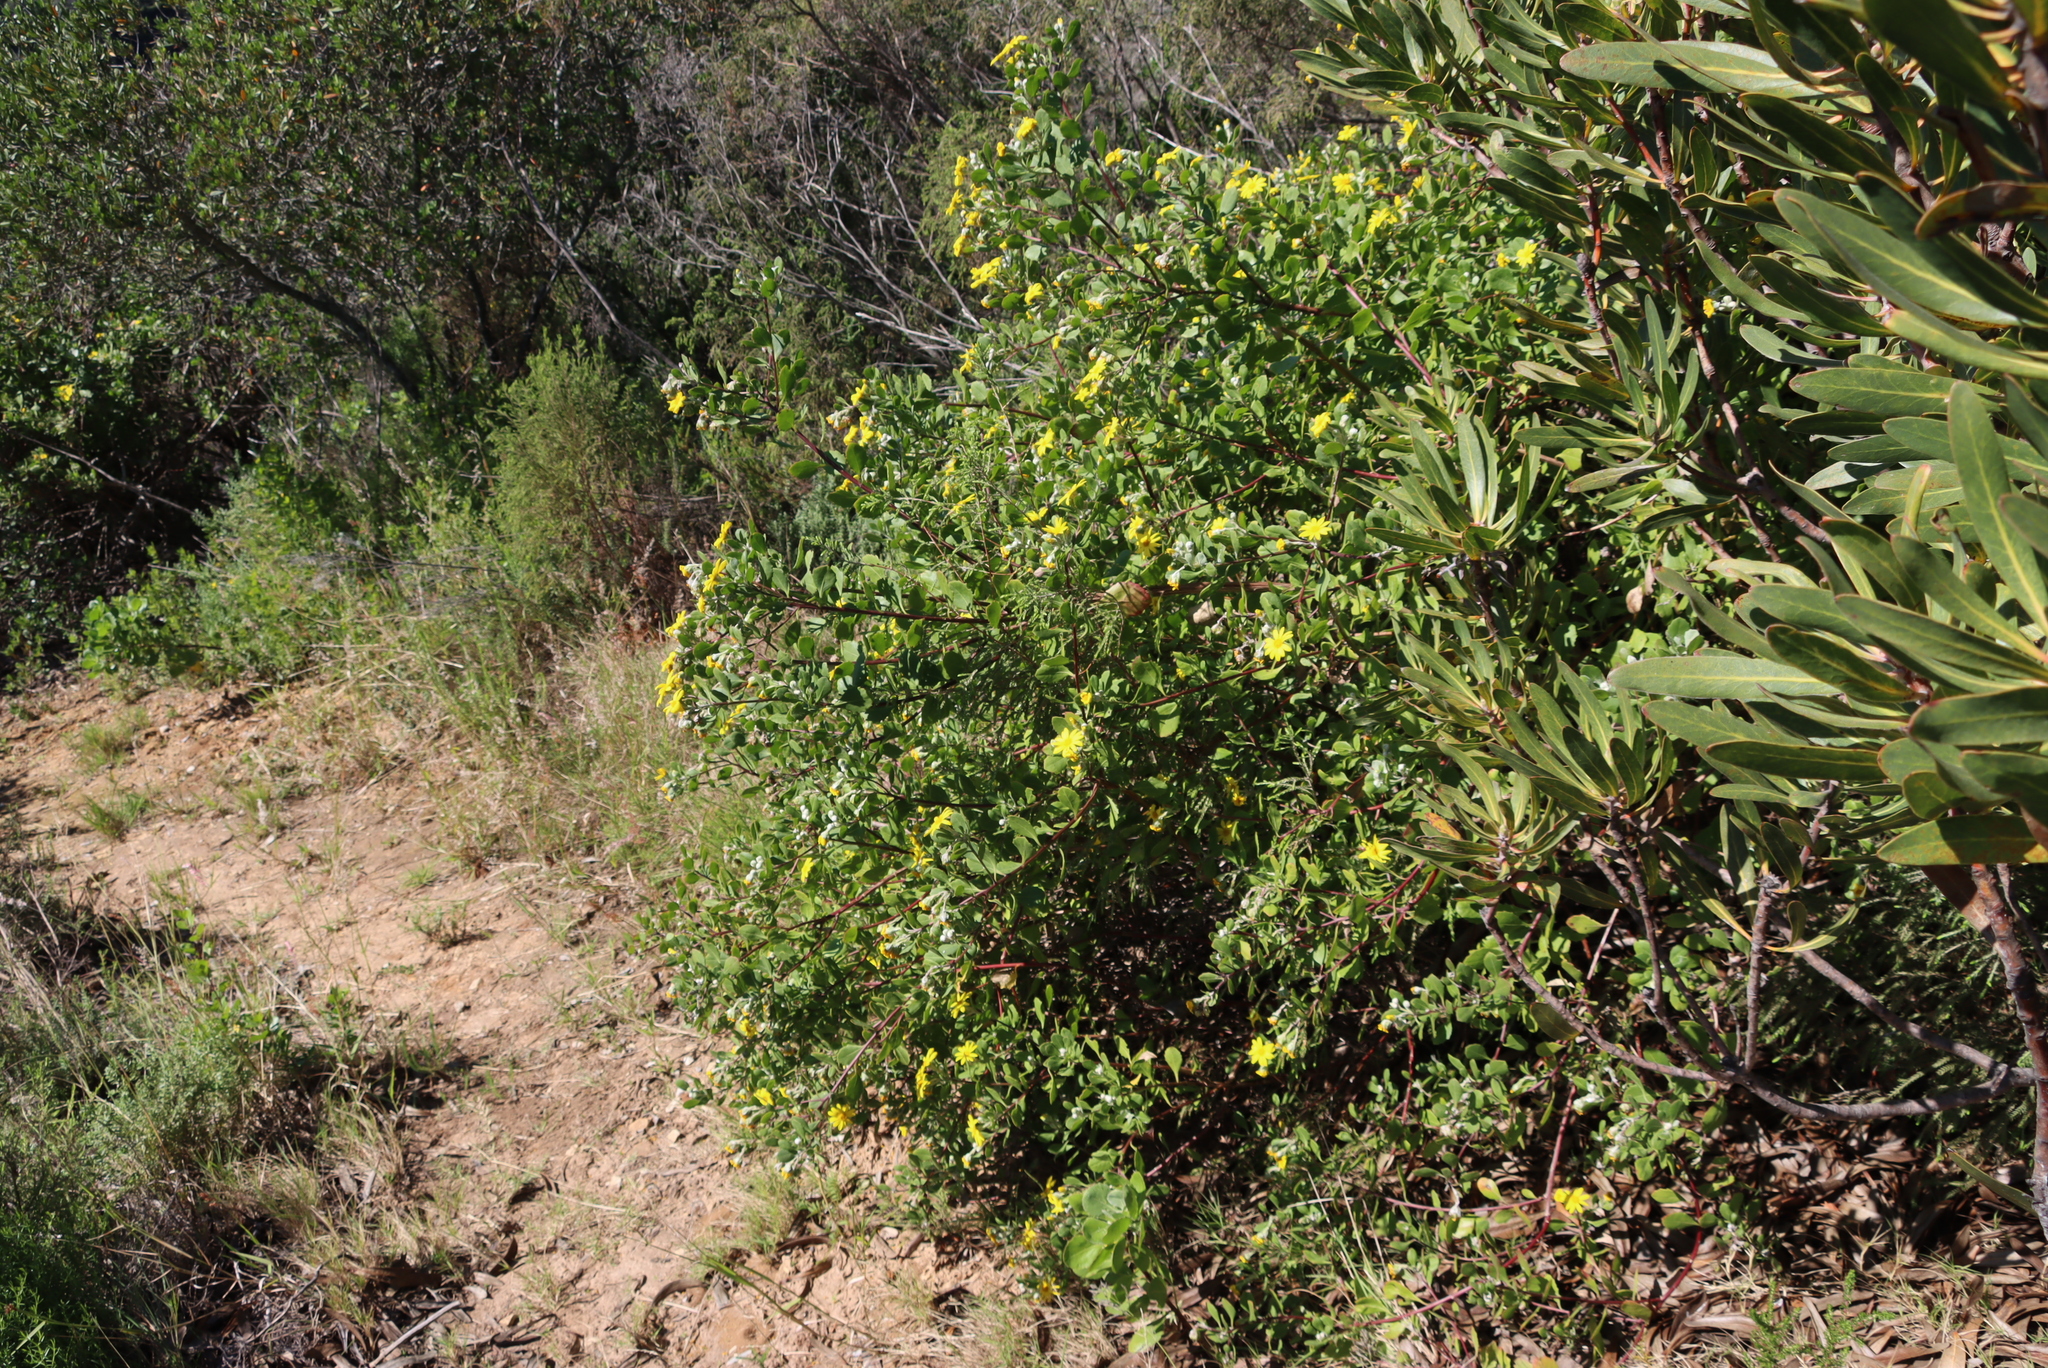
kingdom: Plantae
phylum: Tracheophyta
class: Magnoliopsida
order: Asterales
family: Asteraceae
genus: Osteospermum
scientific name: Osteospermum moniliferum
